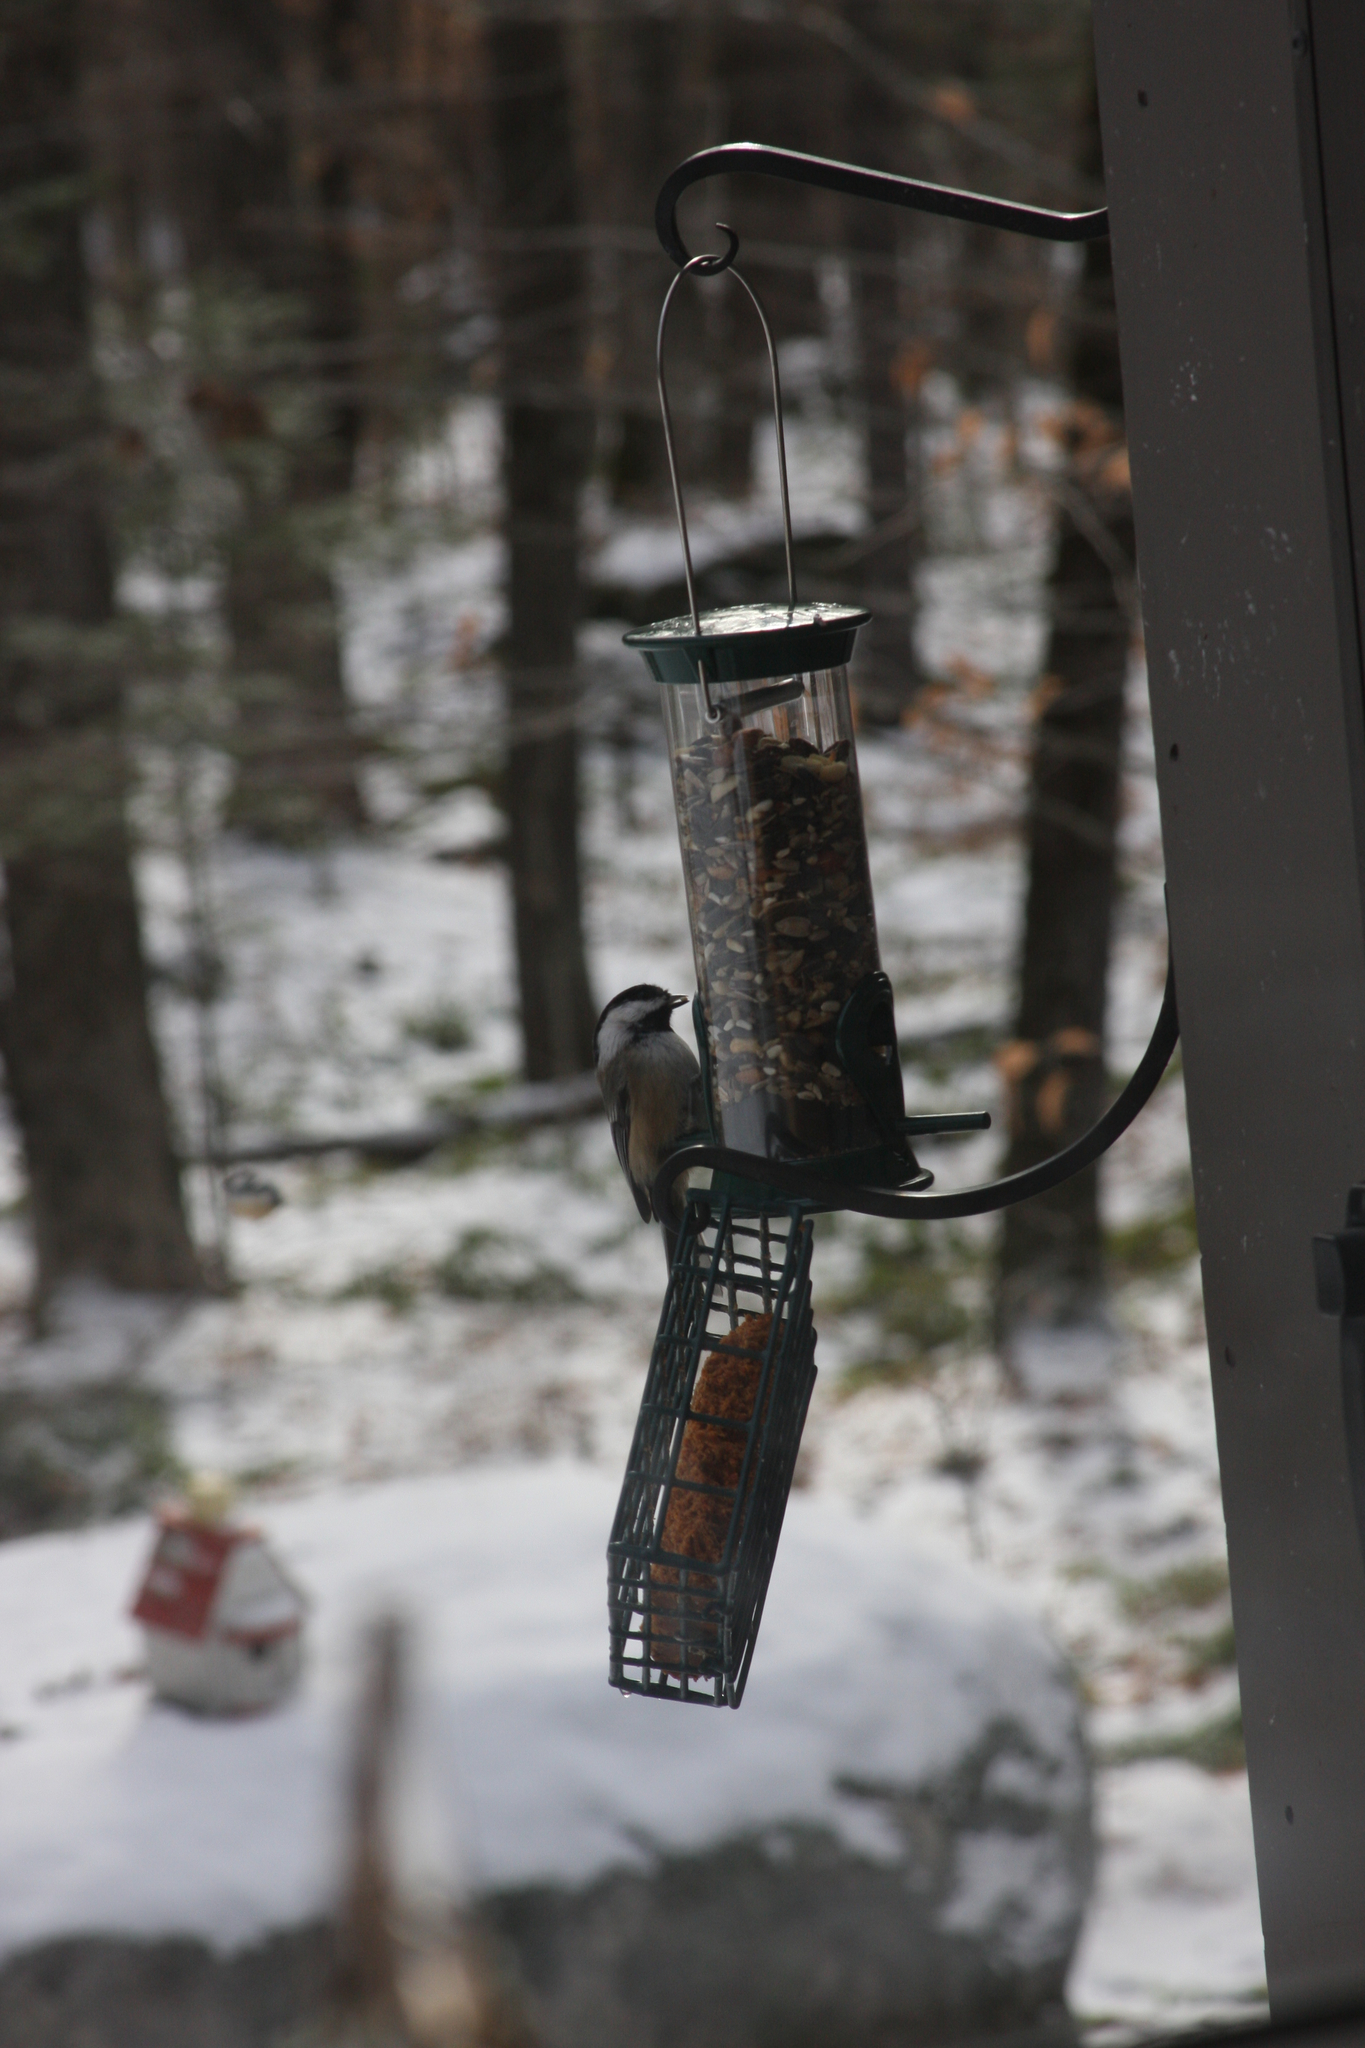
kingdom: Animalia
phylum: Chordata
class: Aves
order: Passeriformes
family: Paridae
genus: Poecile
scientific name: Poecile atricapillus
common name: Black-capped chickadee
